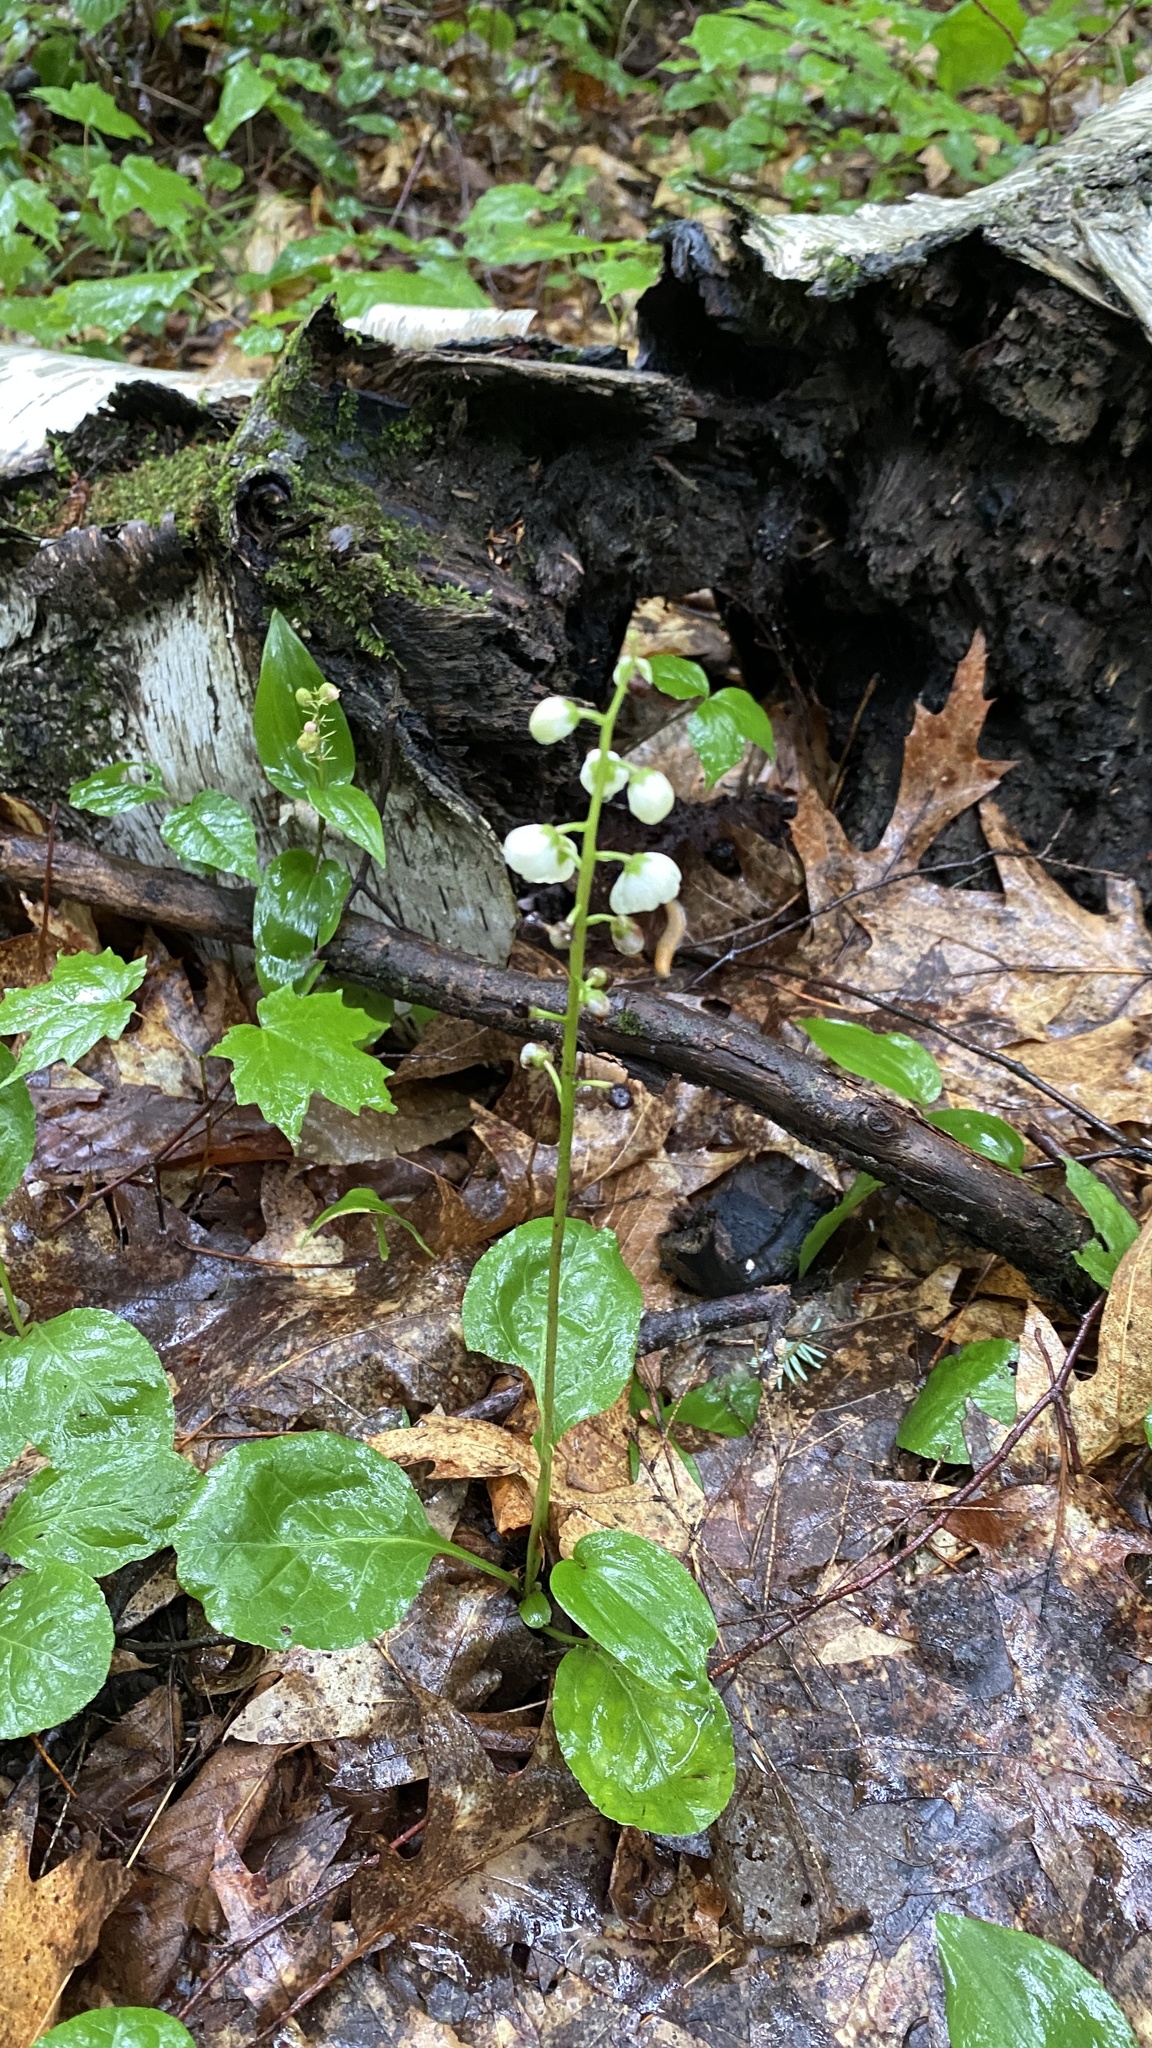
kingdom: Plantae
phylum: Tracheophyta
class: Magnoliopsida
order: Ericales
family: Ericaceae
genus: Pyrola
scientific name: Pyrola elliptica
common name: Shinleaf
